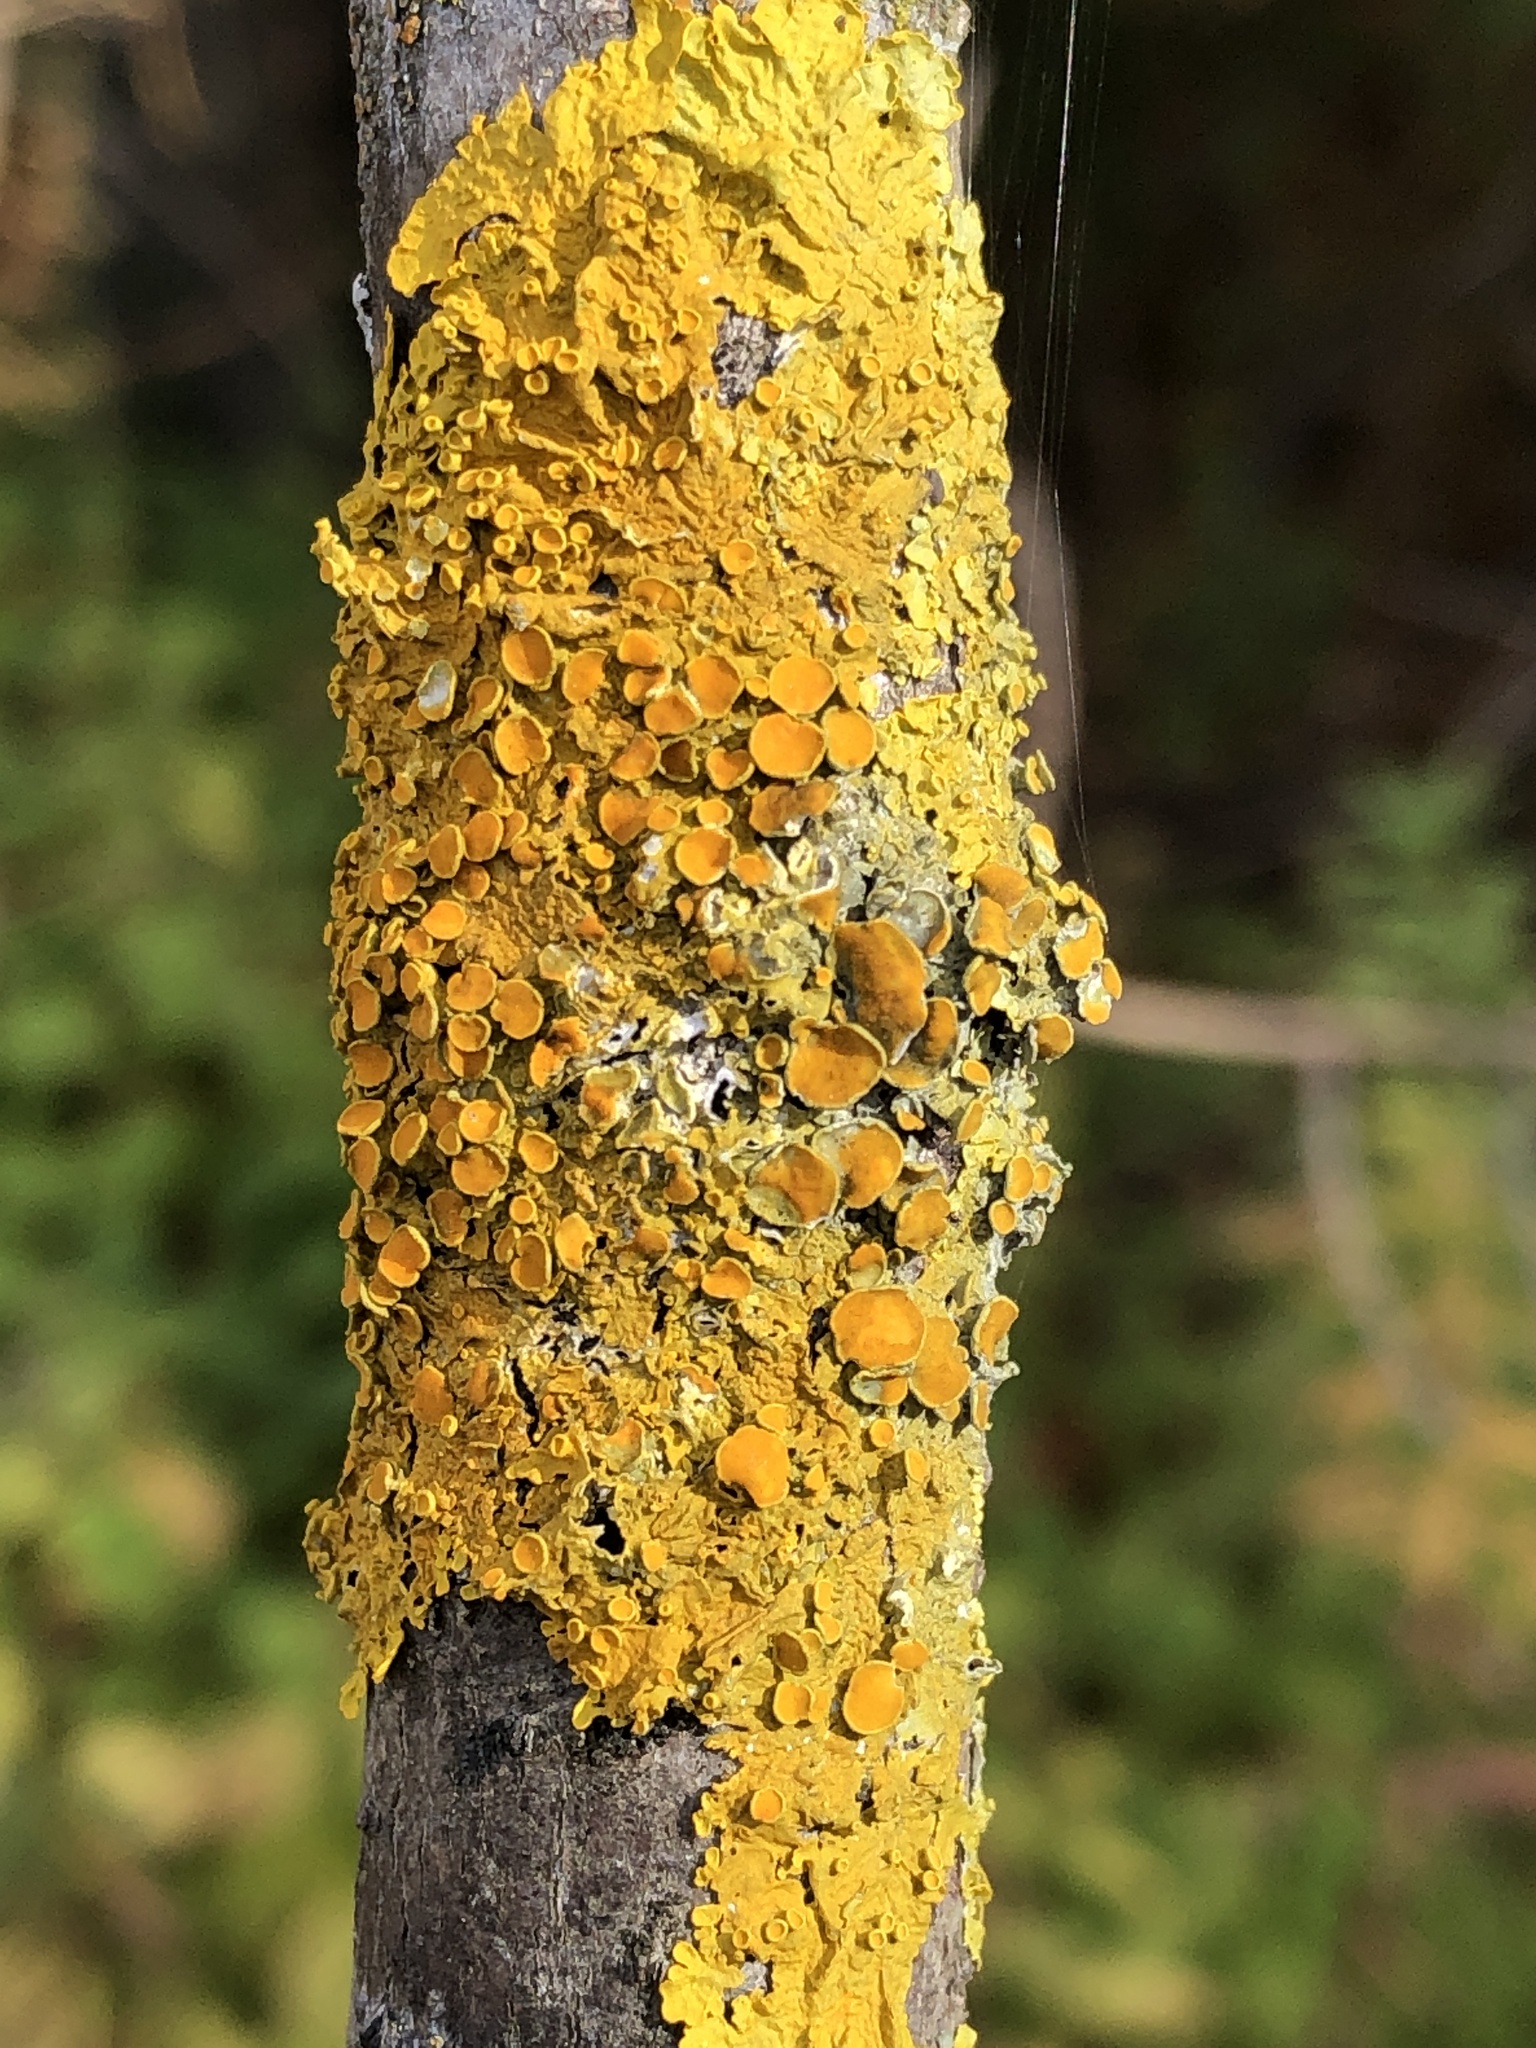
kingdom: Fungi
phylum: Ascomycota
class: Lecanoromycetes
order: Teloschistales
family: Teloschistaceae
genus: Xanthoria
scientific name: Xanthoria parietina
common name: Common orange lichen
